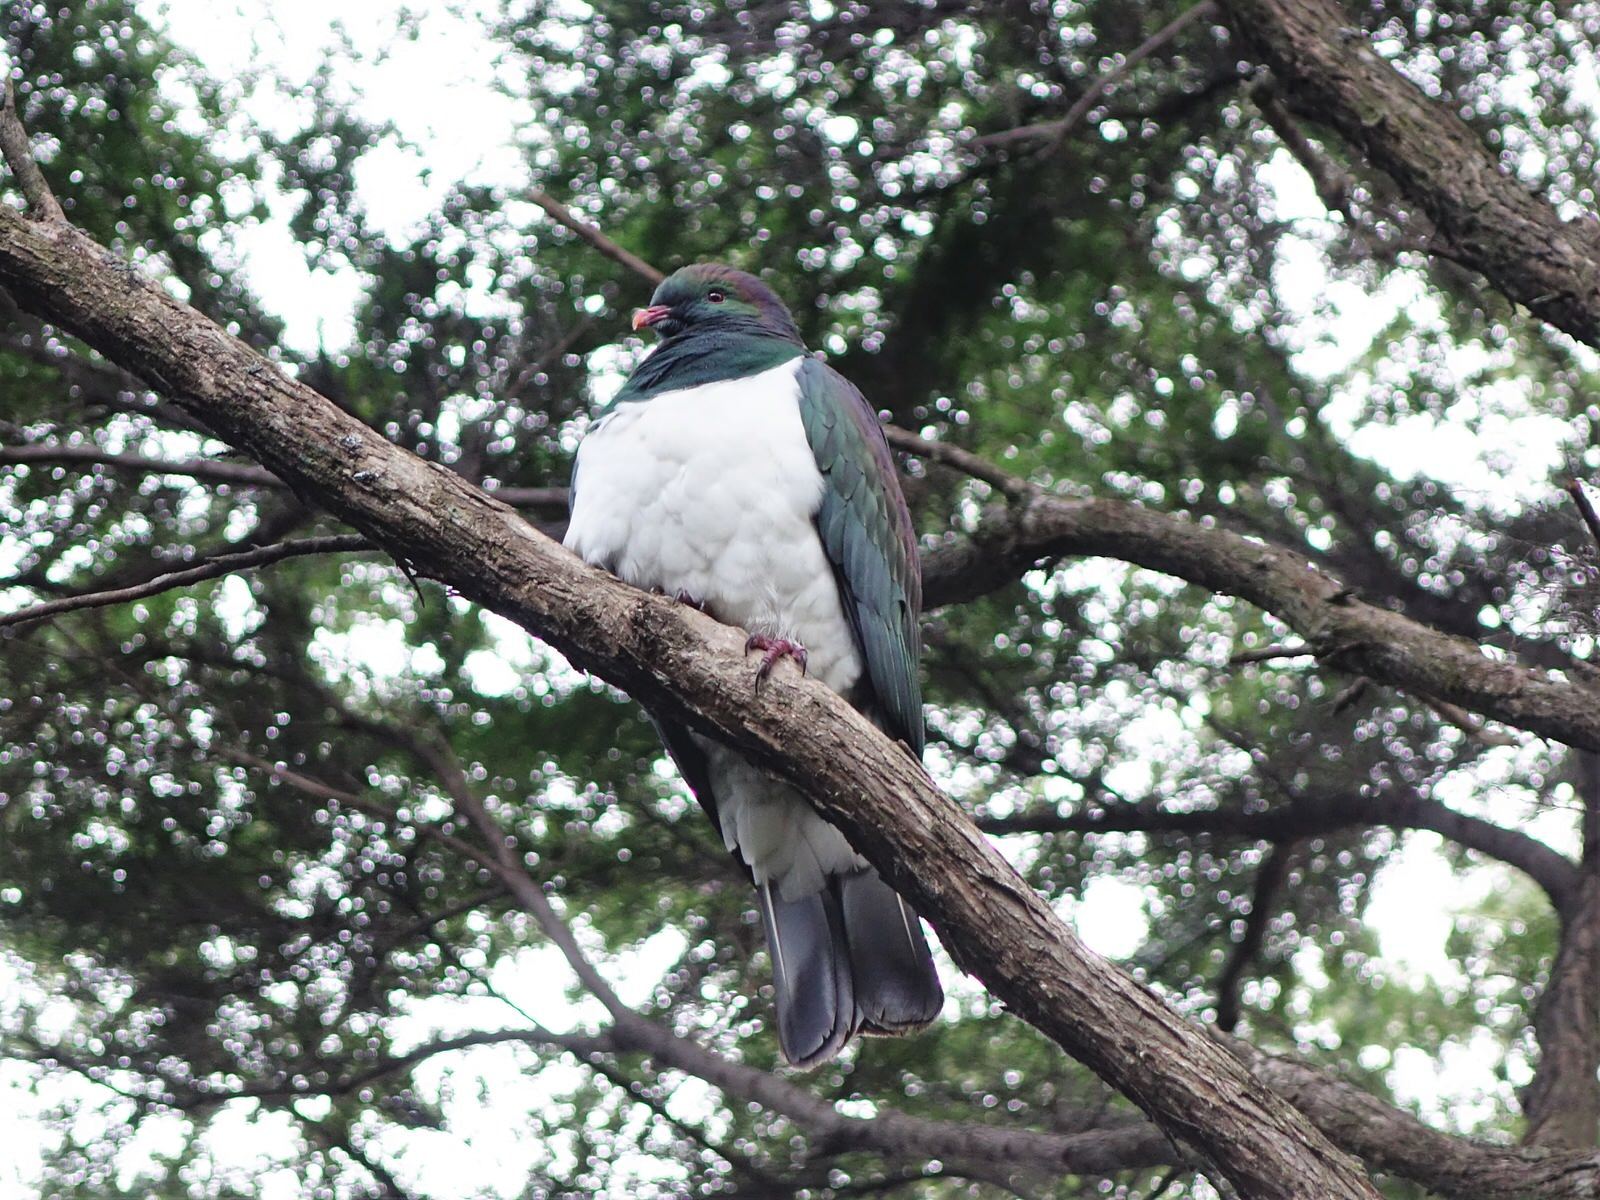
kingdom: Animalia
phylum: Chordata
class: Aves
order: Columbiformes
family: Columbidae
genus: Hemiphaga
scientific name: Hemiphaga novaeseelandiae
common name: New zealand pigeon
